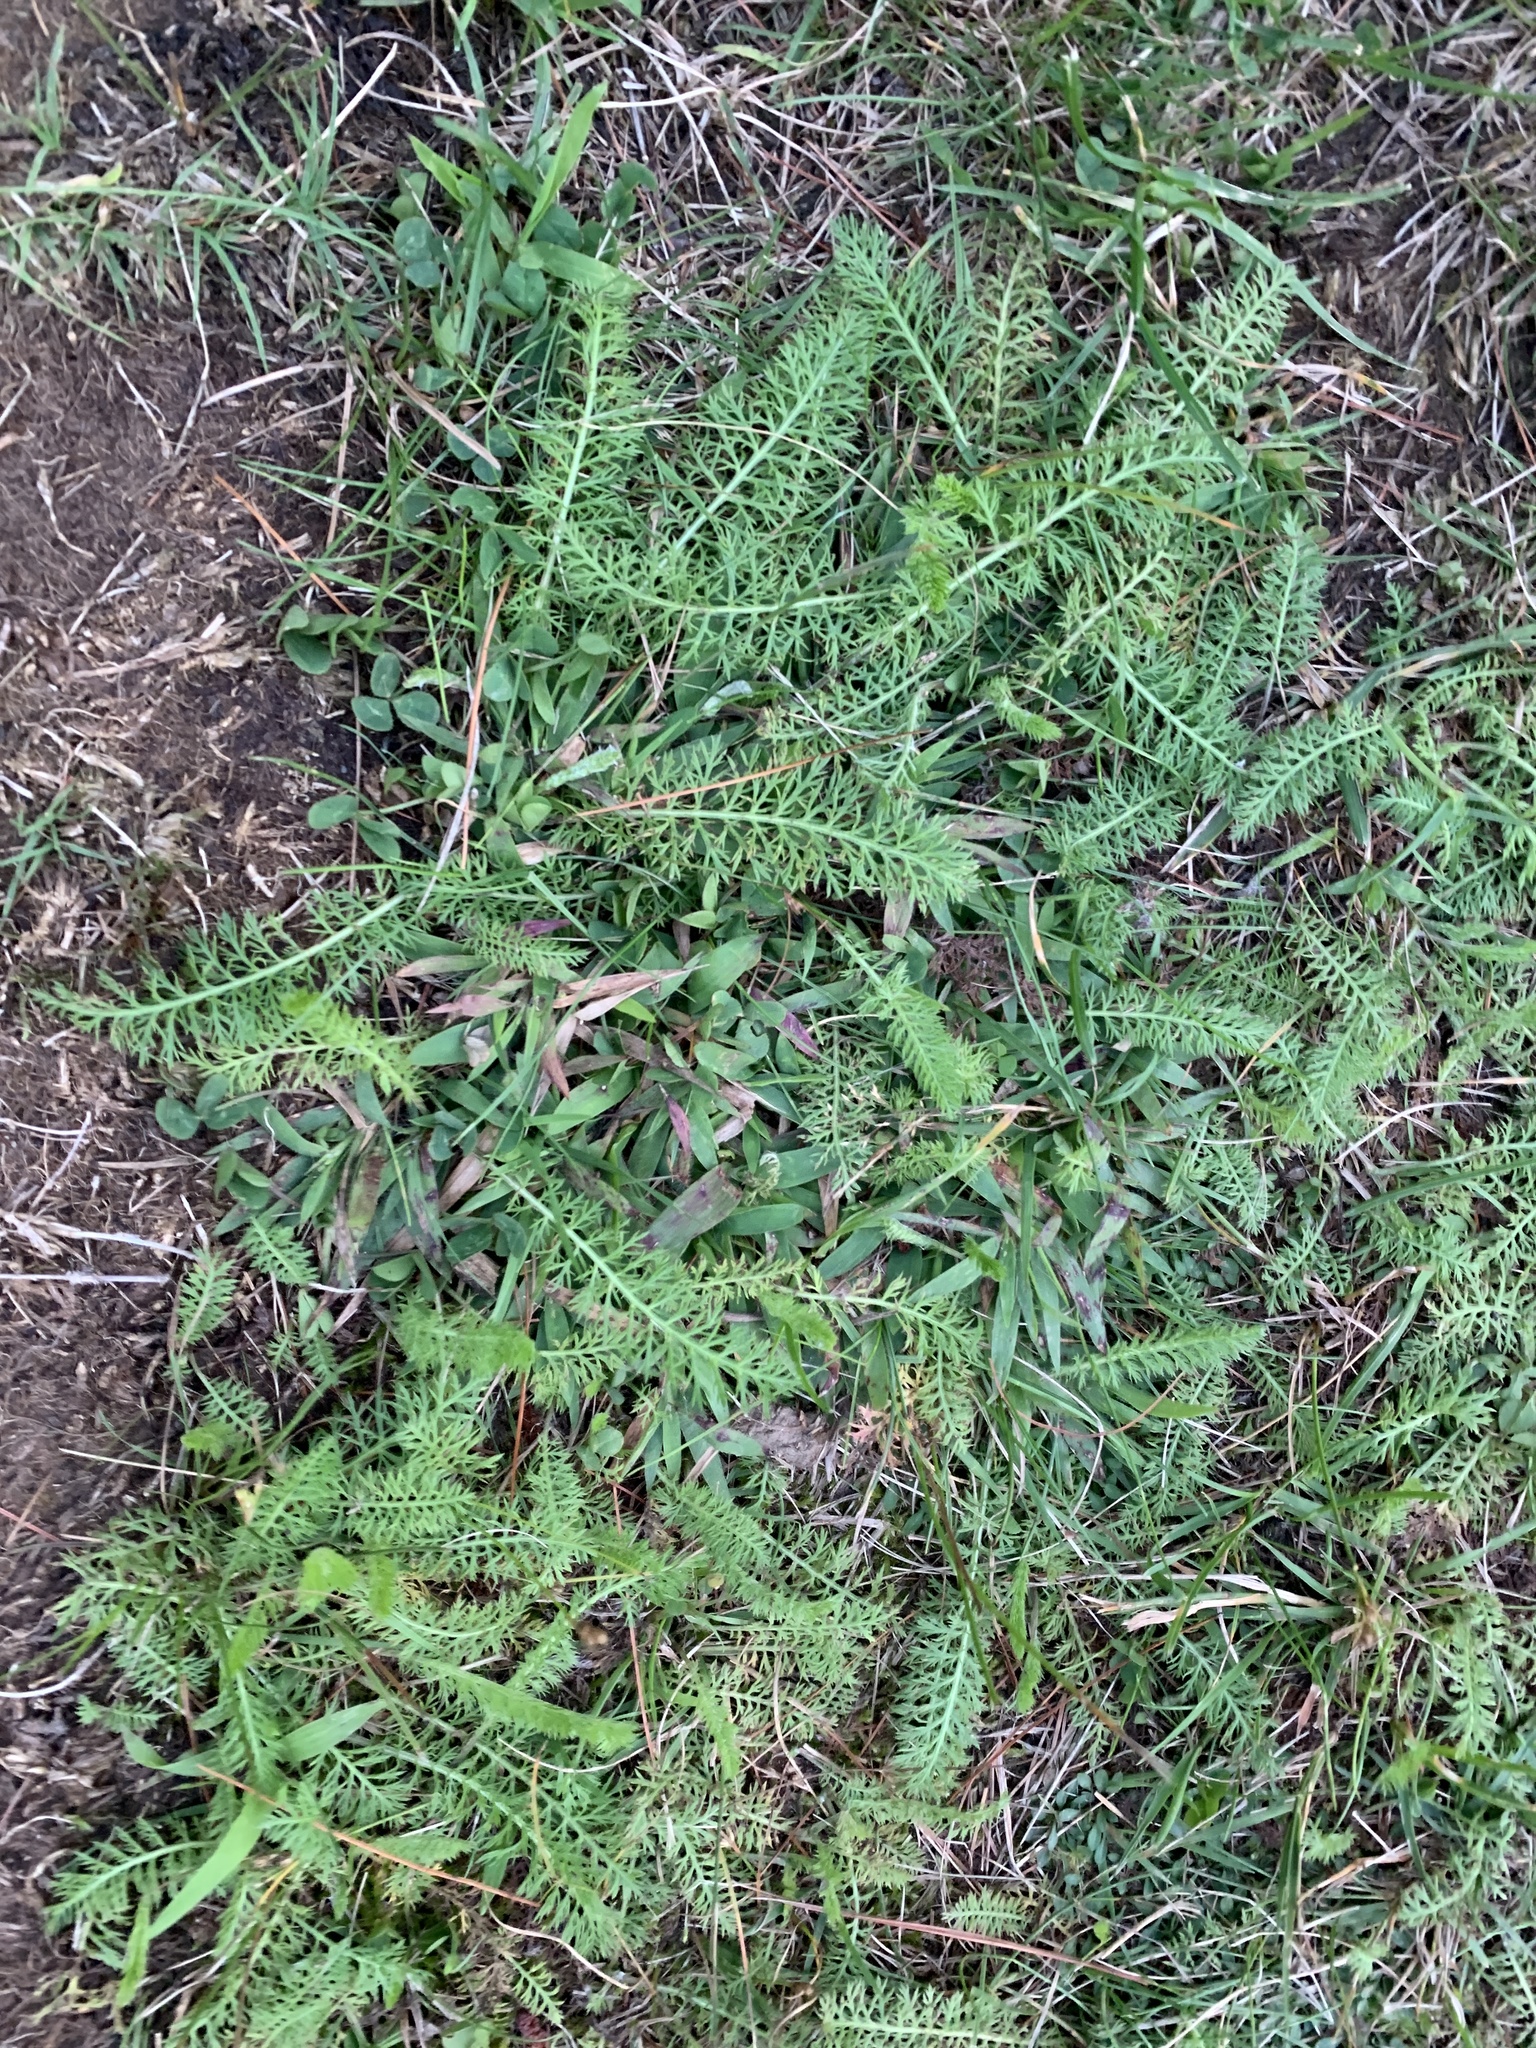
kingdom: Plantae
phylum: Tracheophyta
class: Magnoliopsida
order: Asterales
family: Asteraceae
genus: Achillea
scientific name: Achillea millefolium
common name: Yarrow
